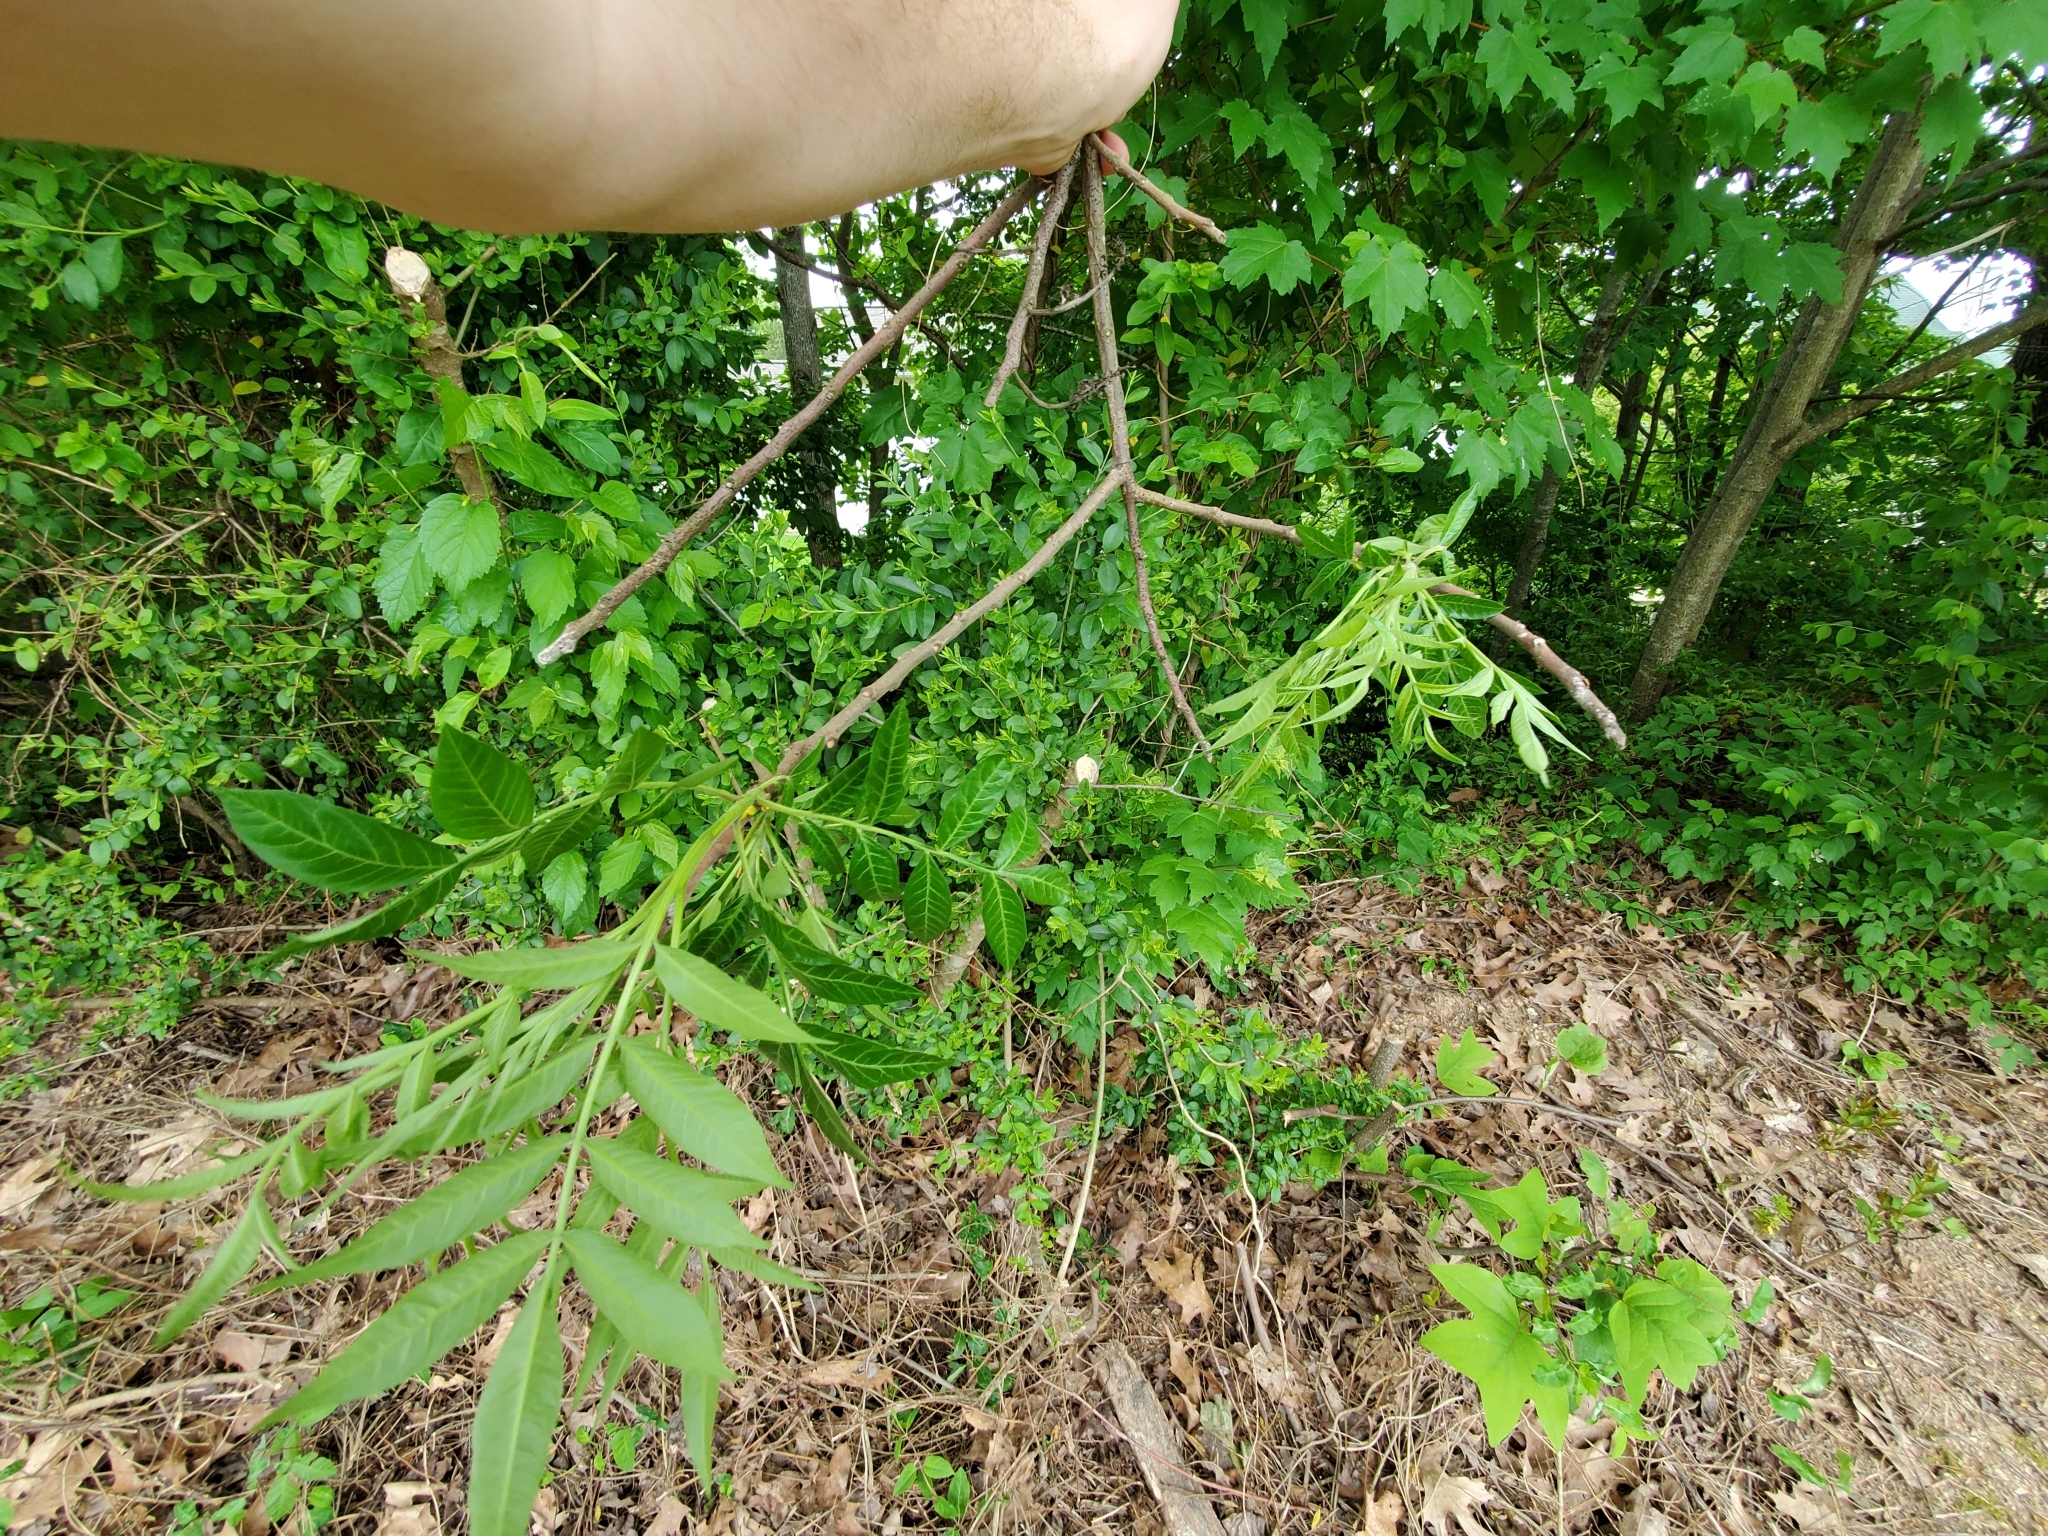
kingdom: Plantae
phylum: Tracheophyta
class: Magnoliopsida
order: Sapindales
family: Anacardiaceae
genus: Rhus
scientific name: Rhus copallina
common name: Shining sumac
